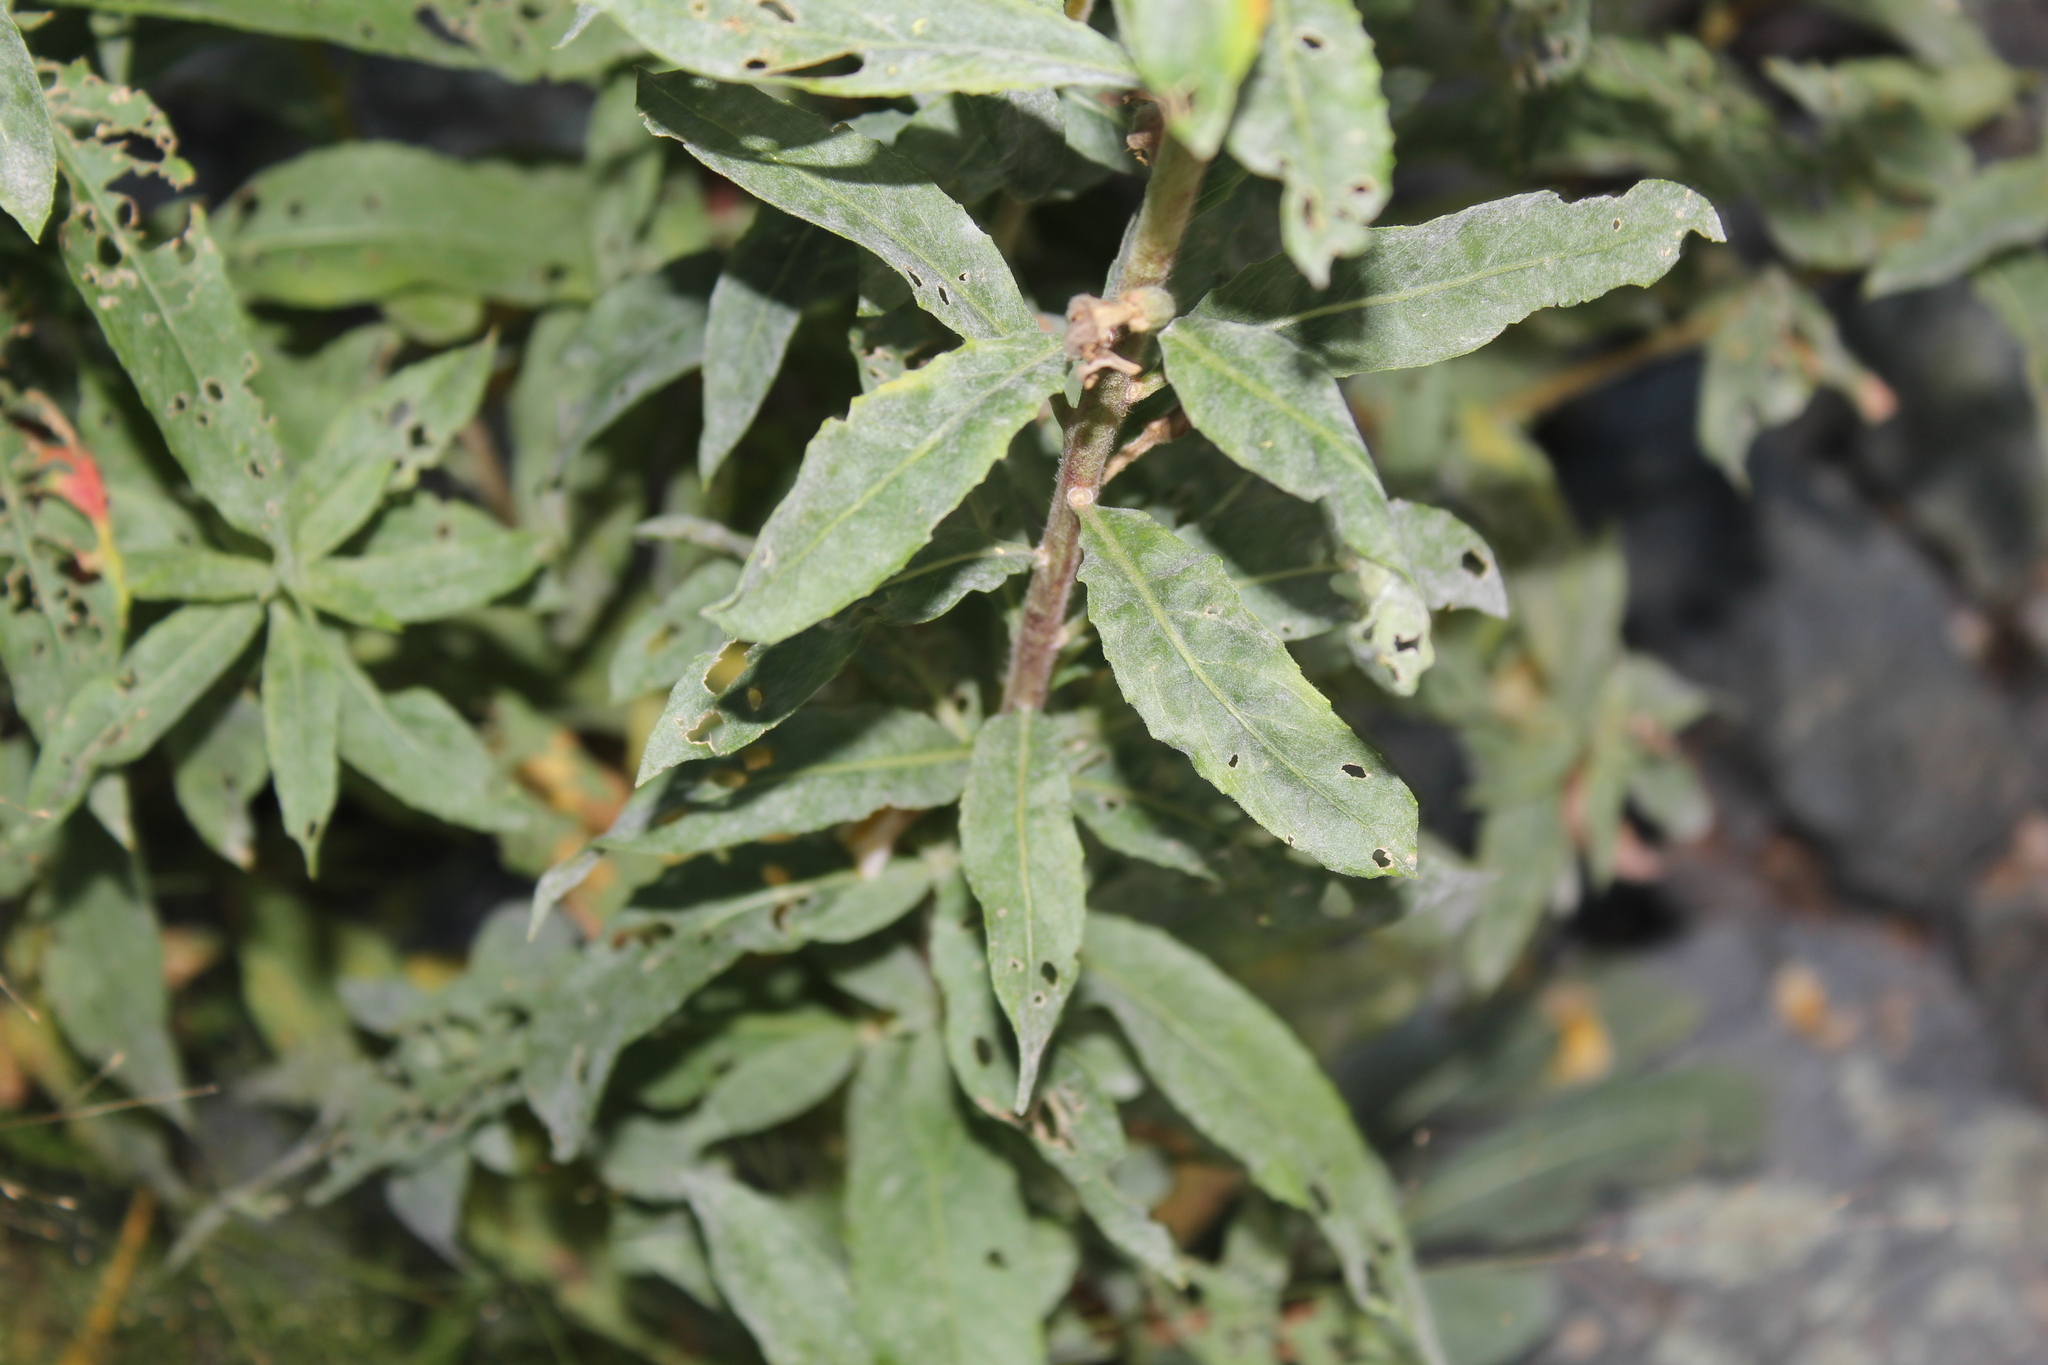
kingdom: Fungi
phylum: Ascomycota
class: Leotiomycetes
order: Helotiales
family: Erysiphaceae
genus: Erysiphe
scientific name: Erysiphe howeana
